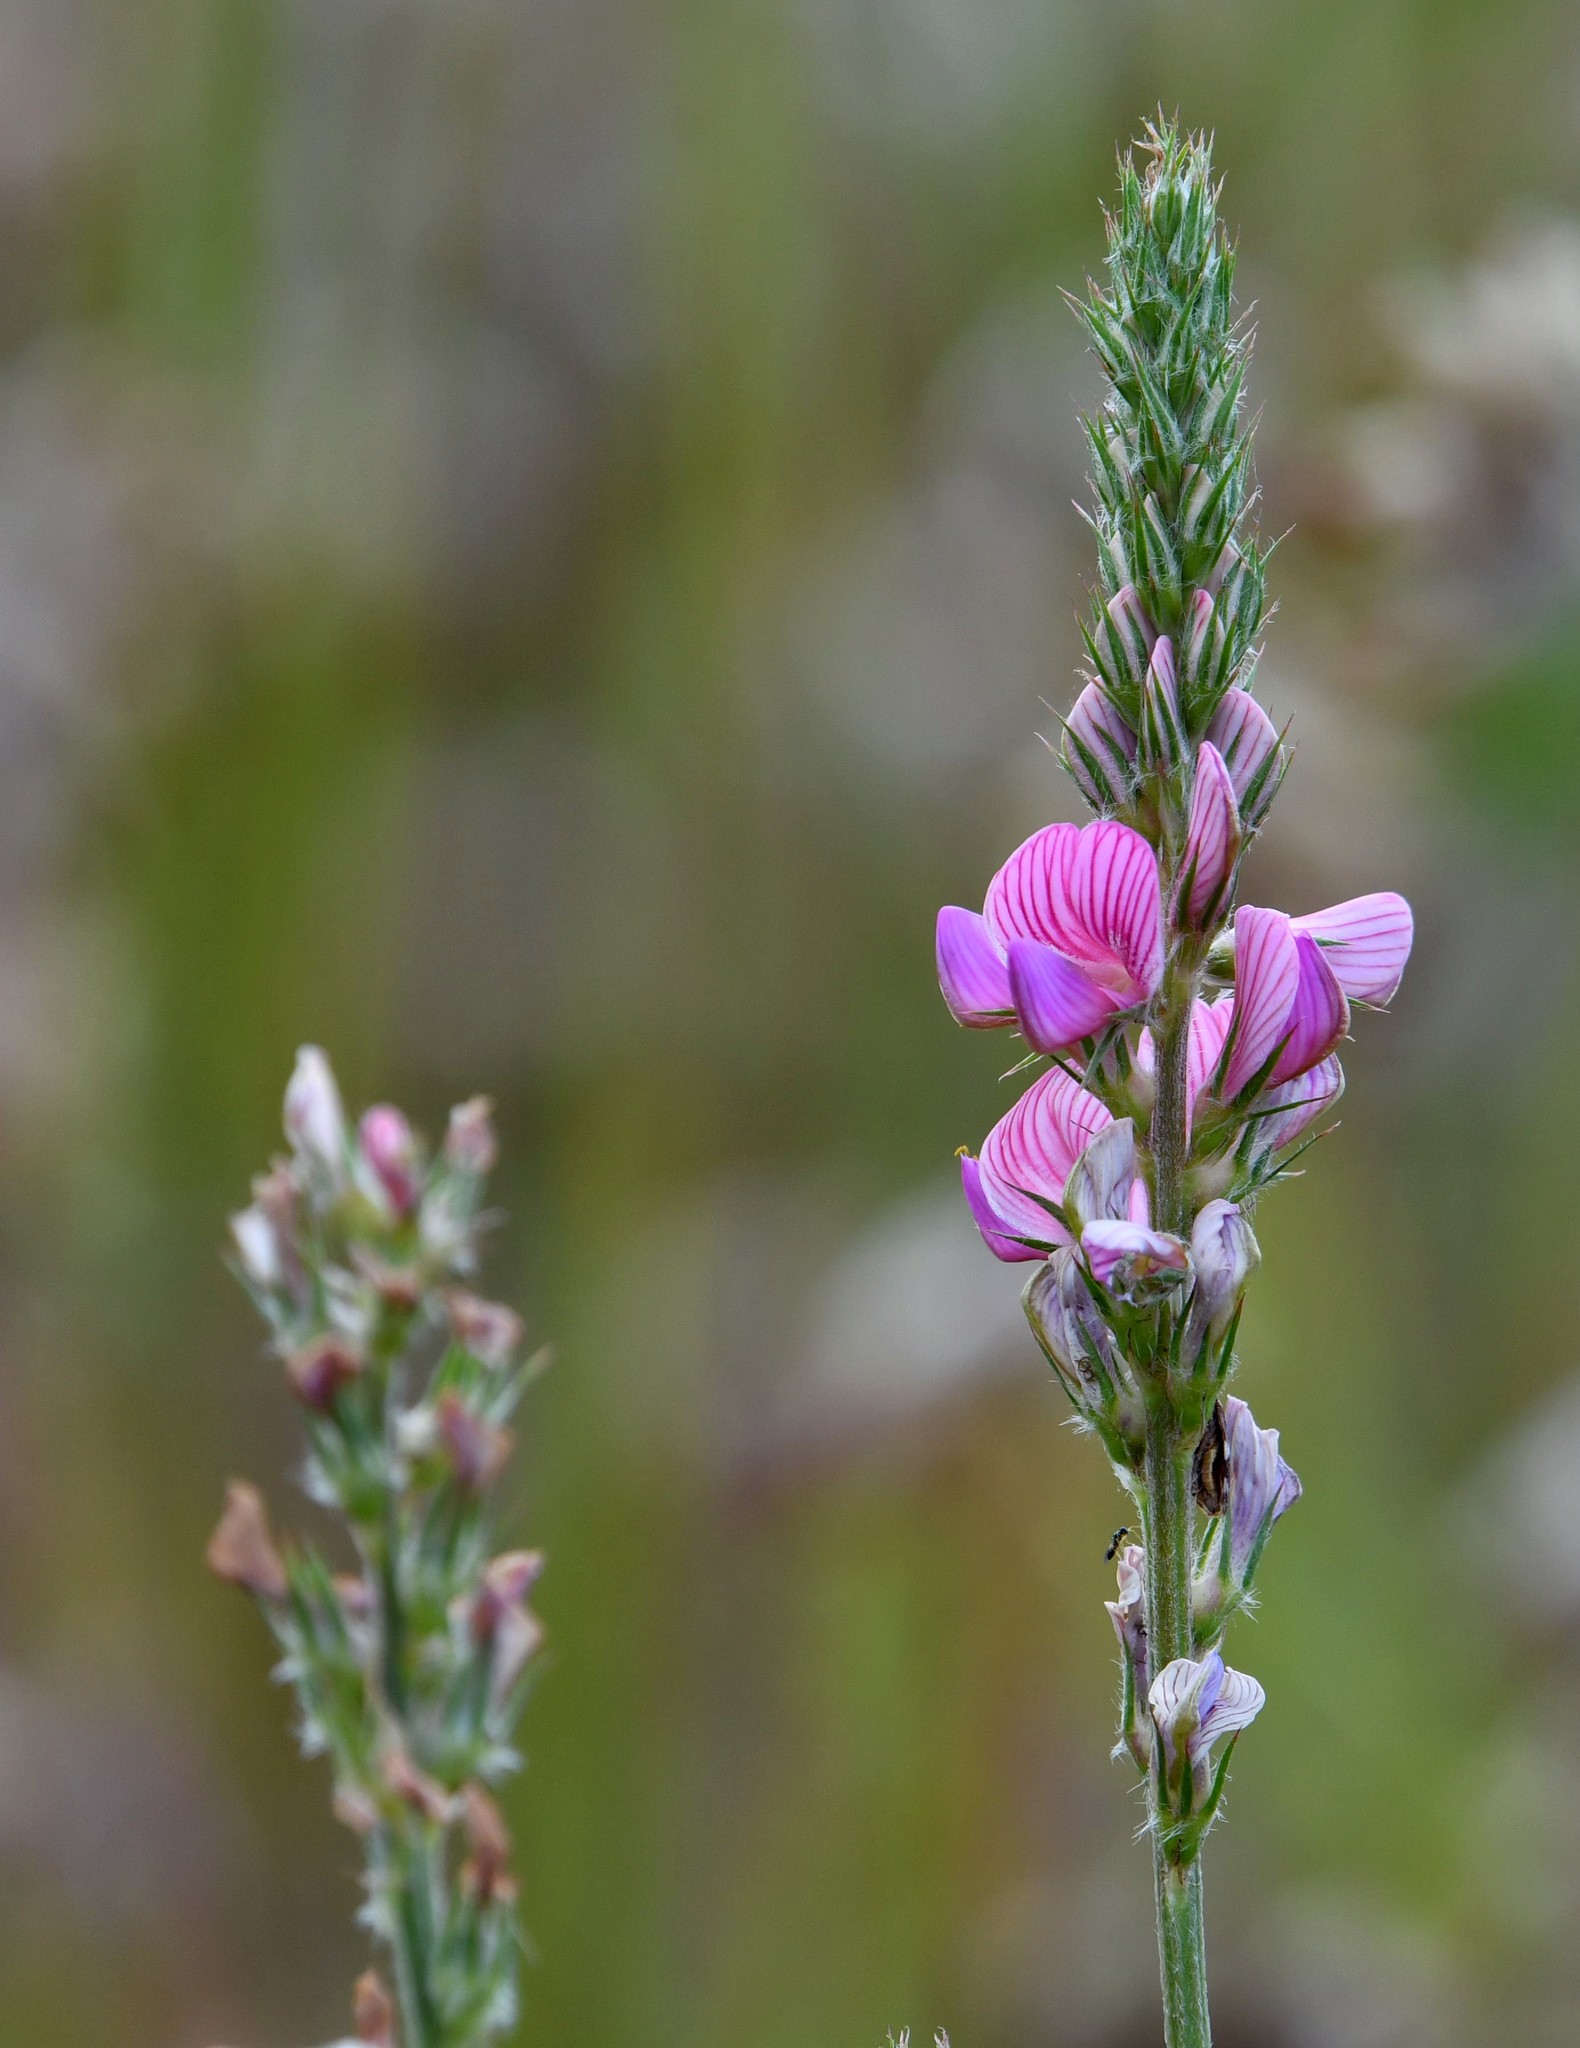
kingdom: Plantae
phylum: Tracheophyta
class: Magnoliopsida
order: Fabales
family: Fabaceae
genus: Onobrychis
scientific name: Onobrychis viciifolia
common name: Sainfoin
